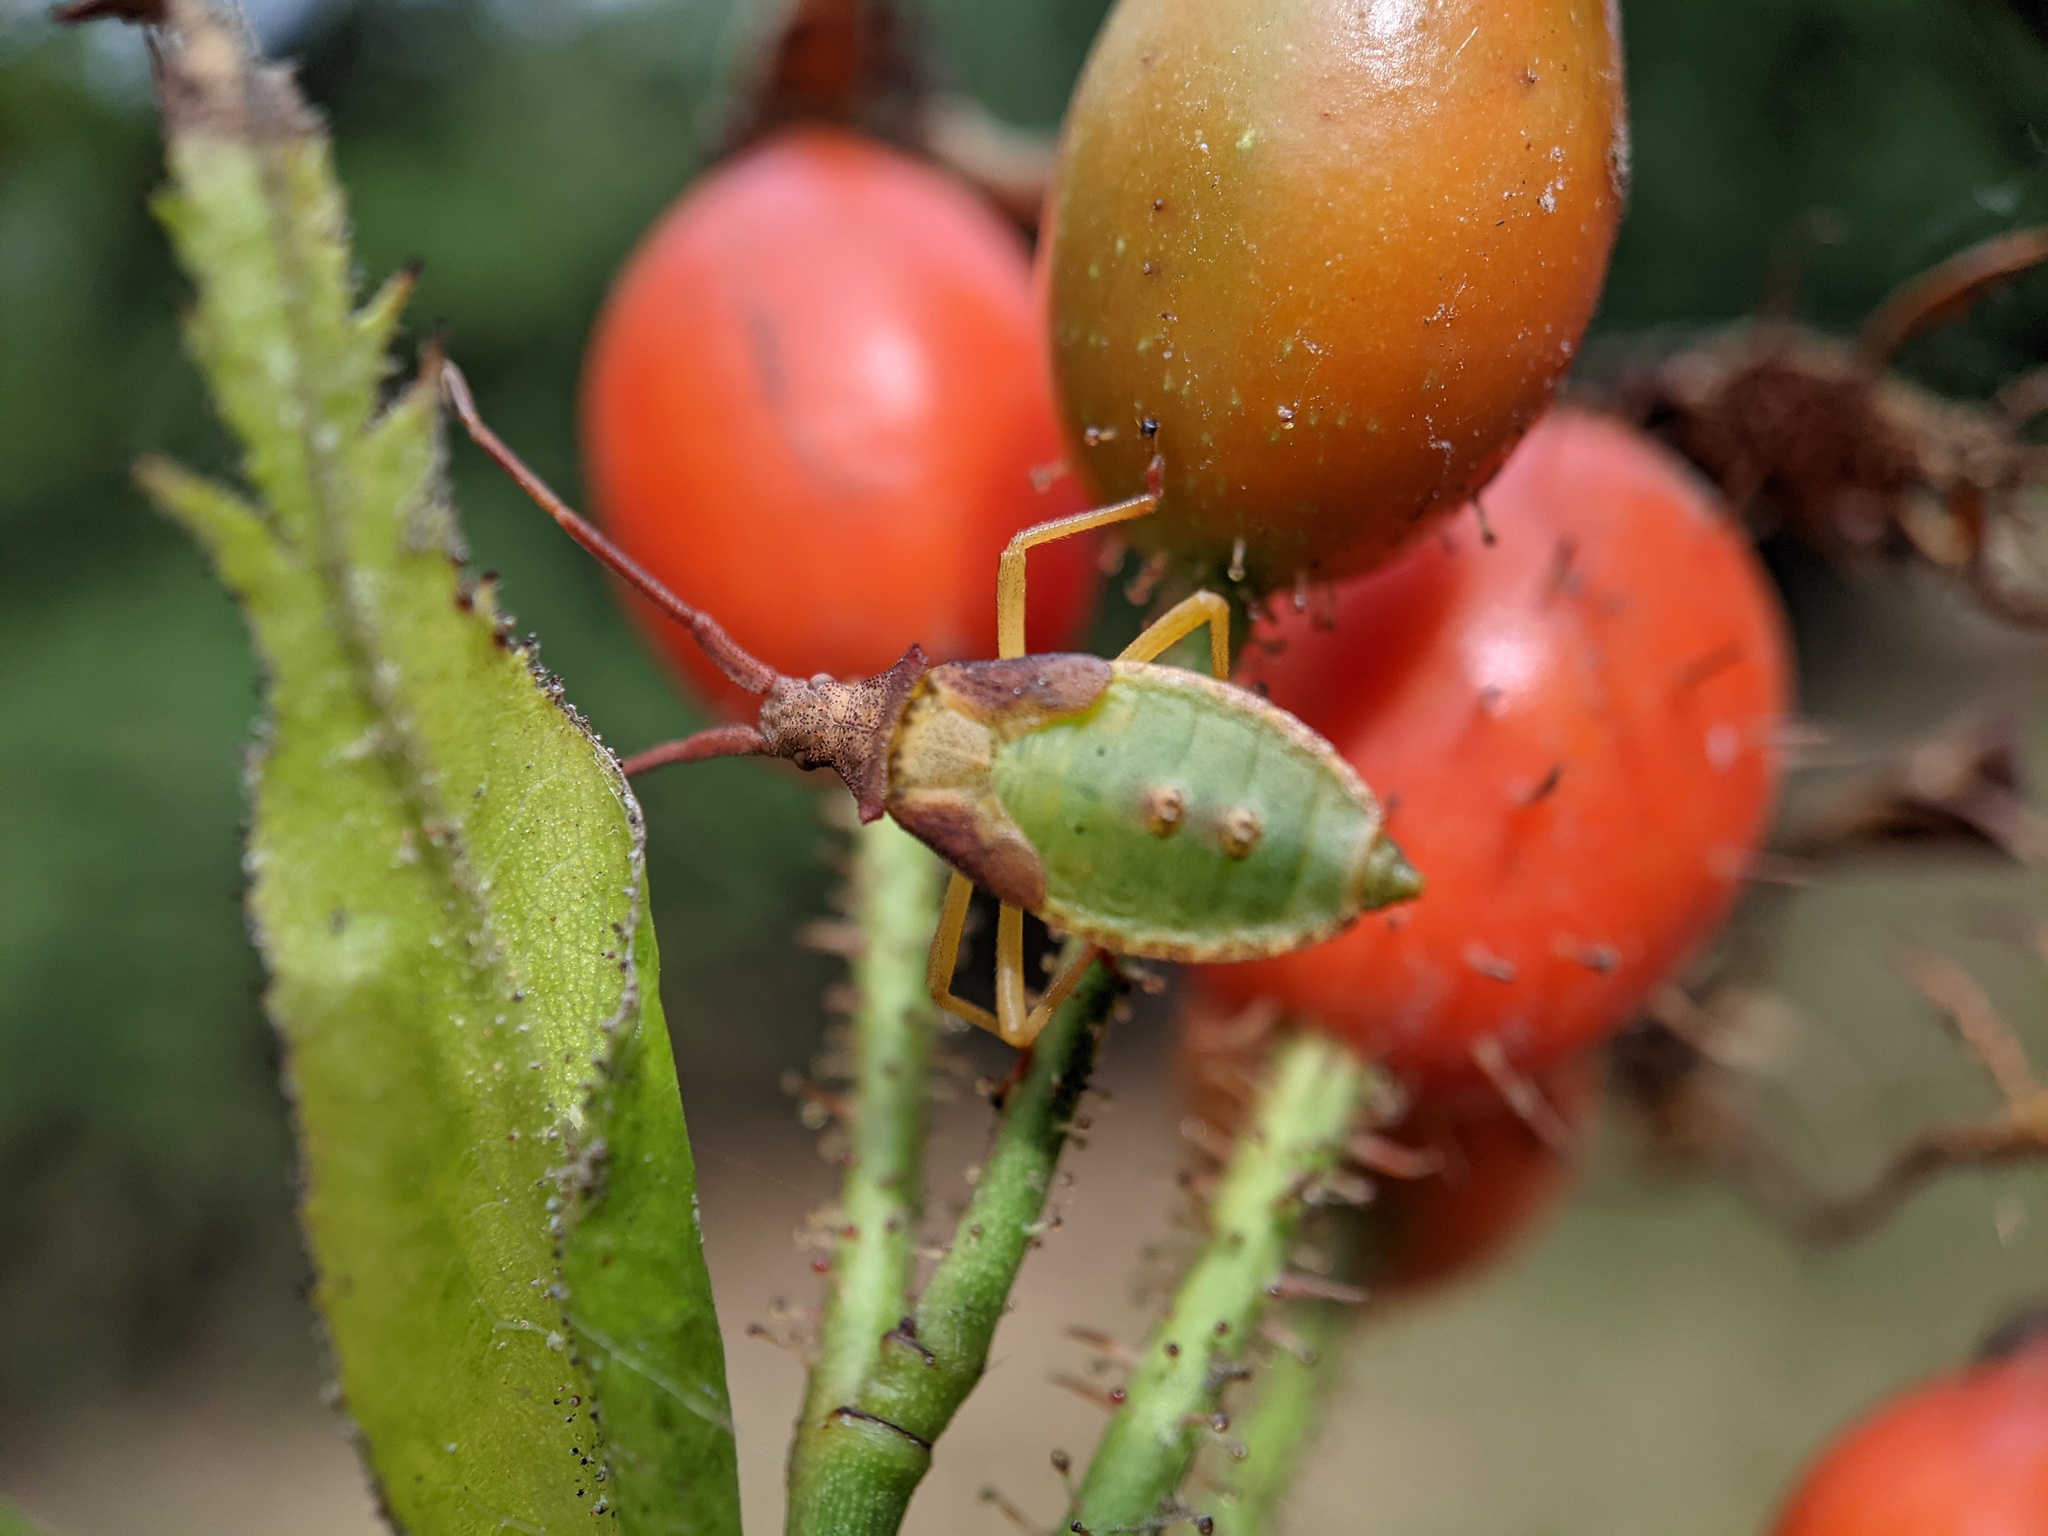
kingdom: Animalia
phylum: Arthropoda
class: Insecta
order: Hemiptera
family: Coreidae
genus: Gonocerus
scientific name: Gonocerus acuteangulatus
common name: Box bug
